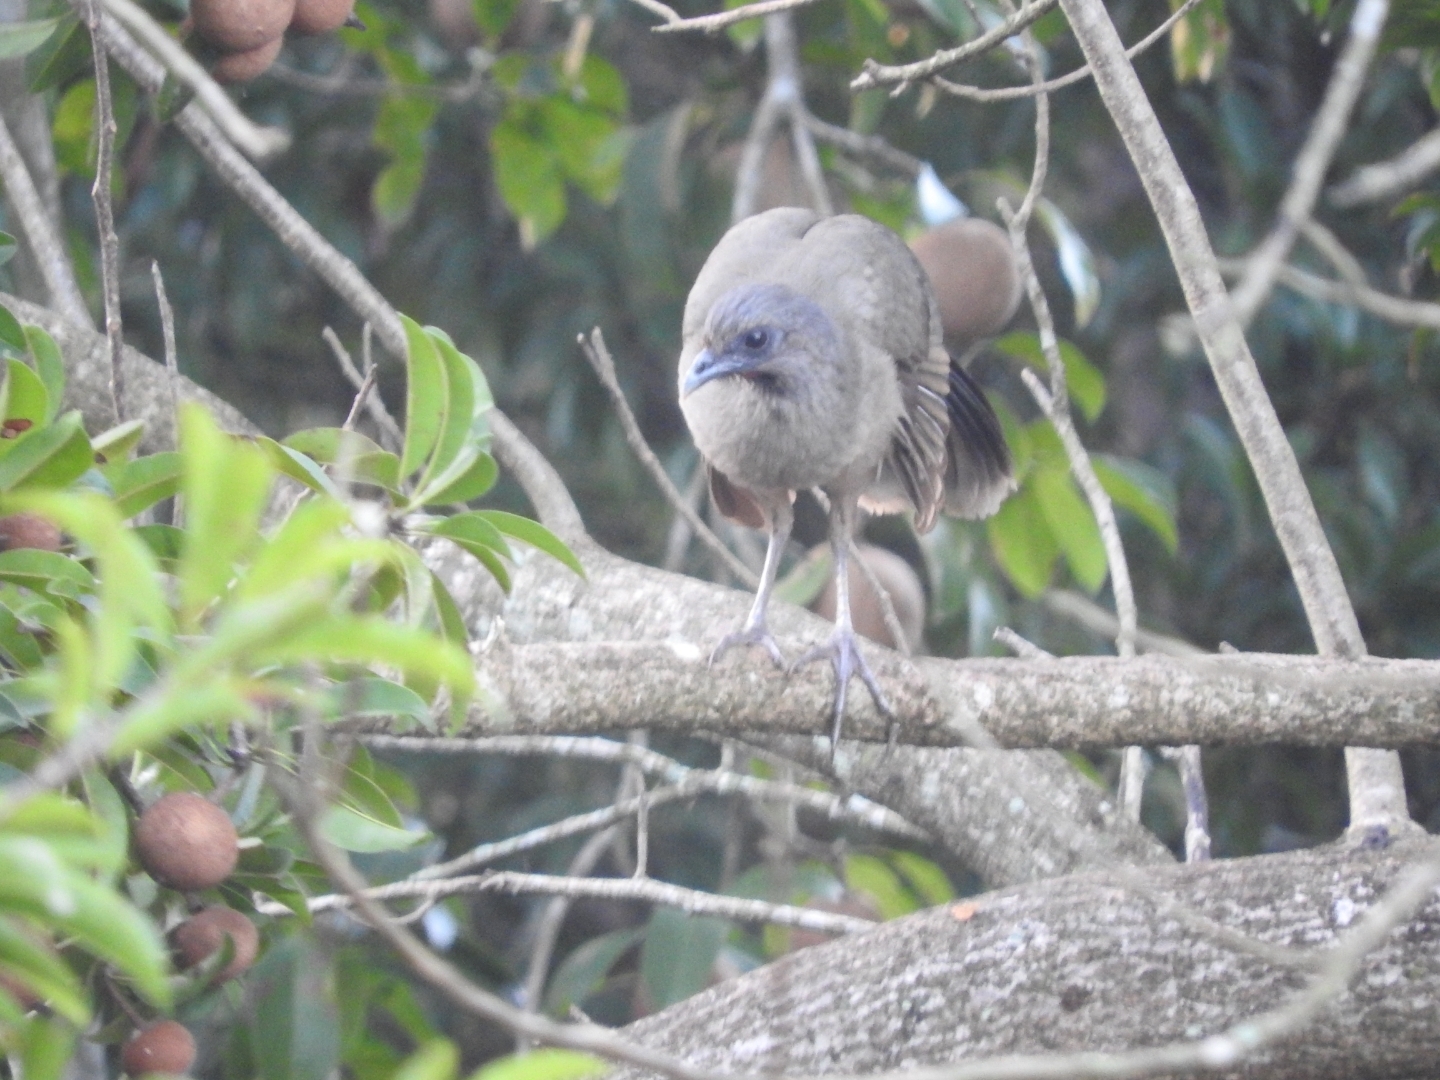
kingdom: Animalia
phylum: Chordata
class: Aves
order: Galliformes
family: Cracidae
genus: Ortalis
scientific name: Ortalis vetula
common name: Plain chachalaca
